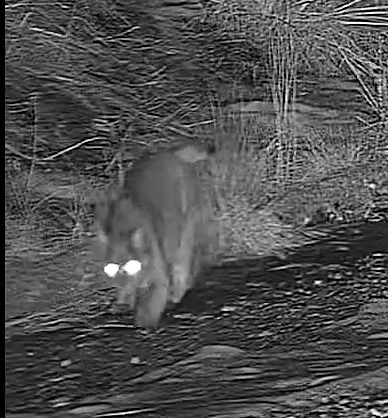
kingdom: Animalia
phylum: Chordata
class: Mammalia
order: Carnivora
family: Felidae
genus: Lynx
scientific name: Lynx rufus
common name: Bobcat
